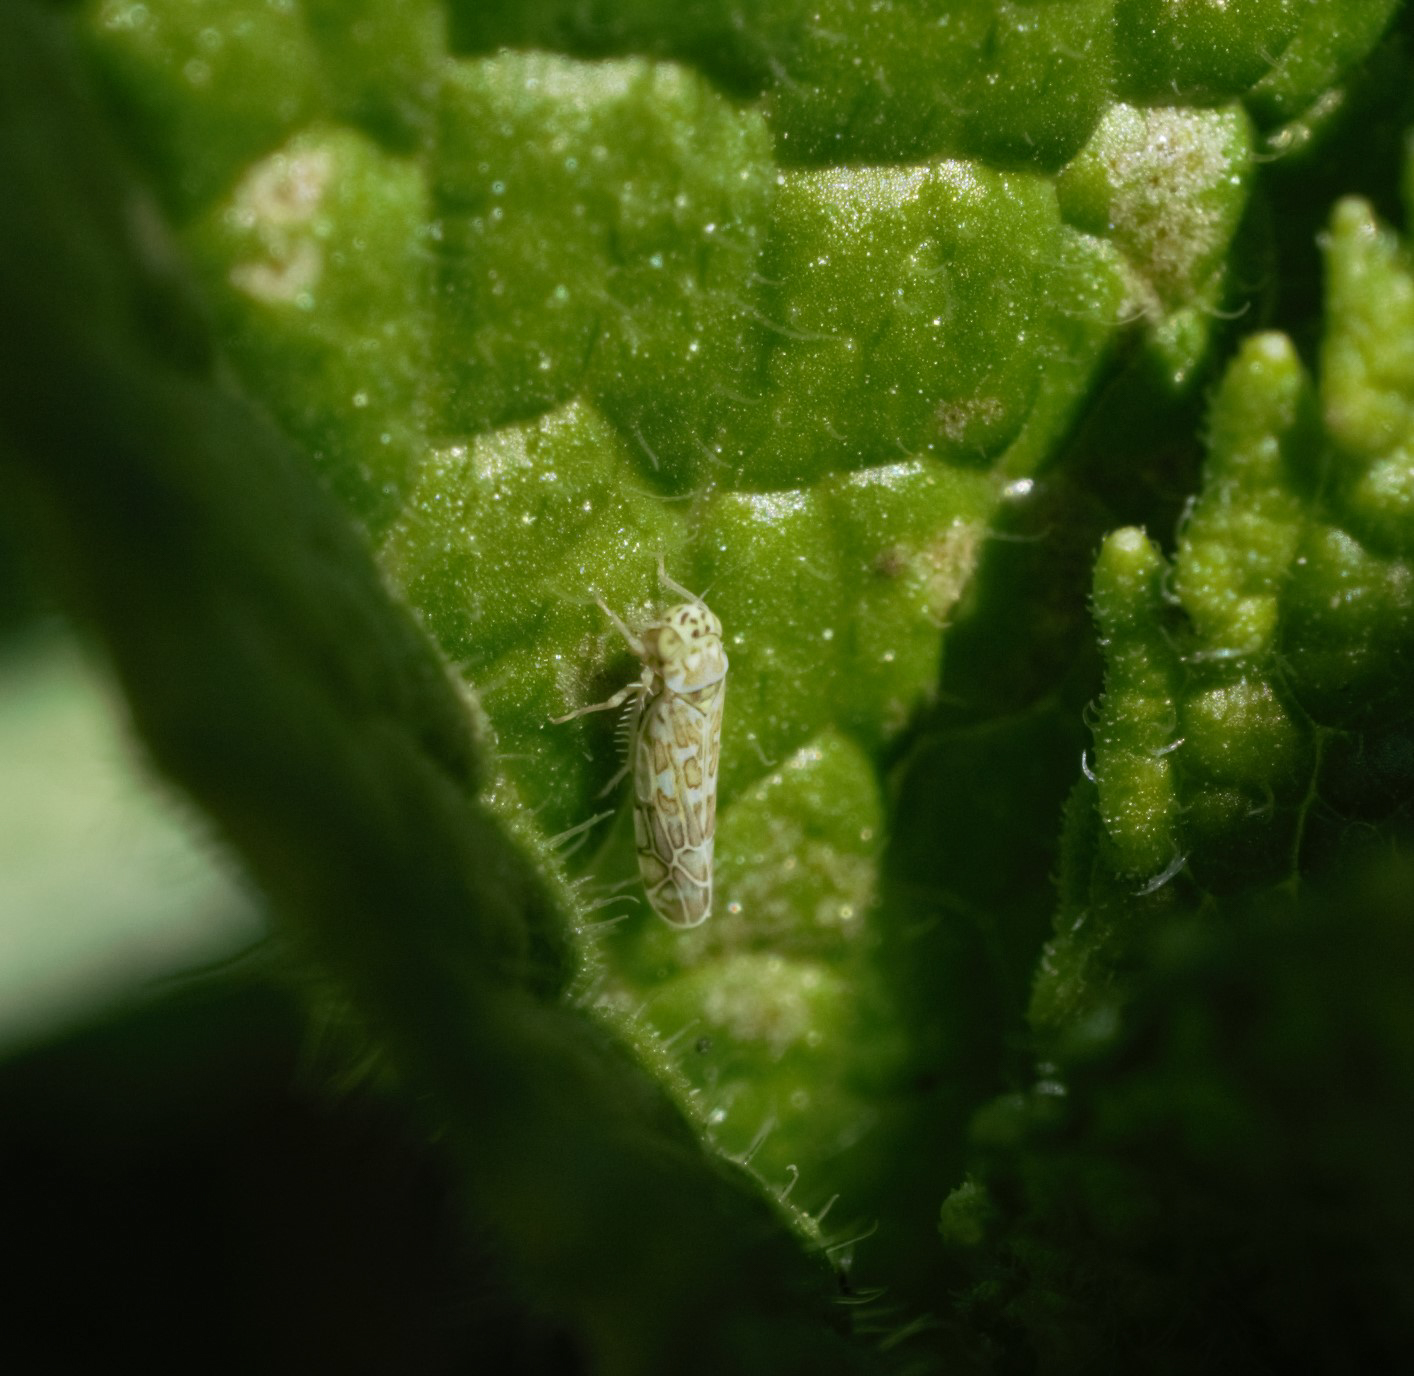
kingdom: Animalia
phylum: Arthropoda
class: Insecta
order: Hemiptera
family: Cicadellidae
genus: Eupteryx
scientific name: Eupteryx decemnotata
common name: Ligurian leafhopper
